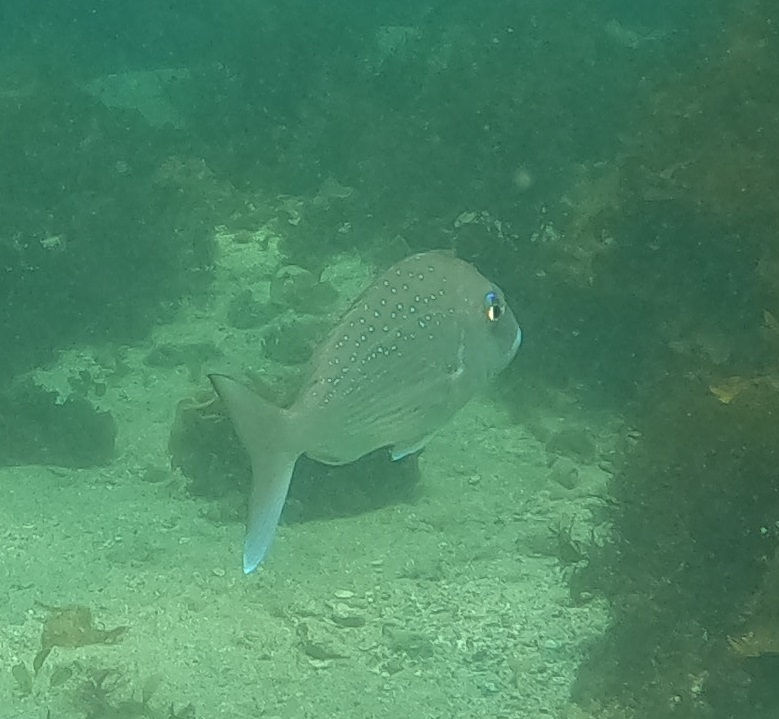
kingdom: Animalia
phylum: Chordata
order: Perciformes
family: Sparidae
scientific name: Sparidae
